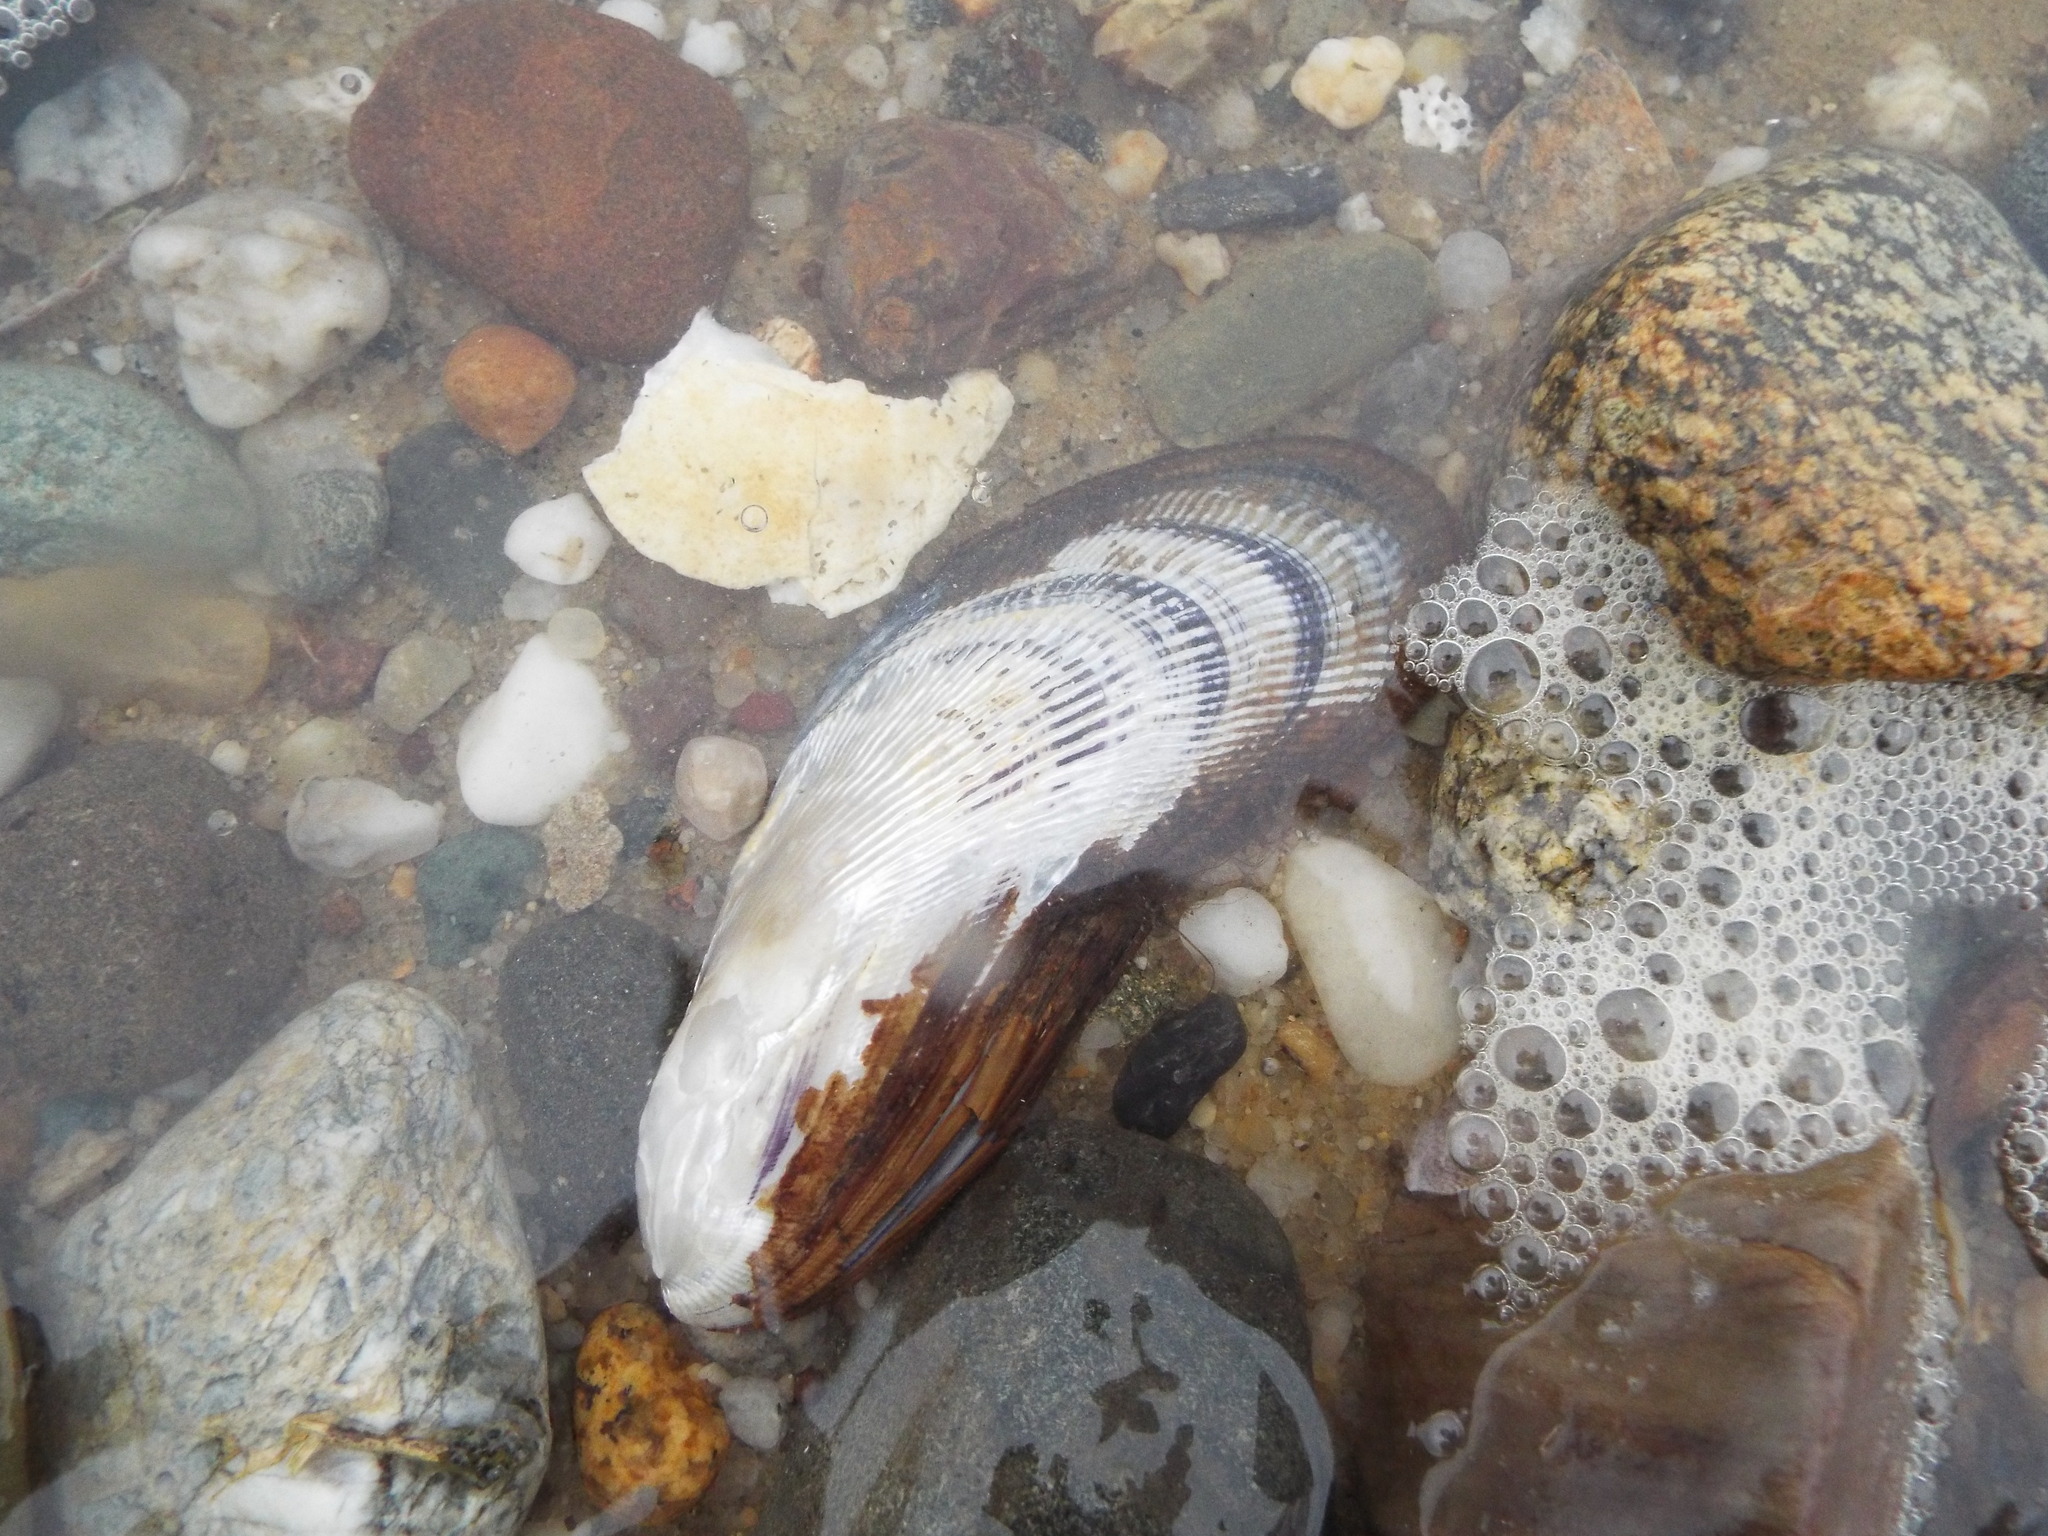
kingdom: Animalia
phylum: Mollusca
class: Bivalvia
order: Mytilida
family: Mytilidae
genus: Geukensia
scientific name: Geukensia demissa
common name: Ribbed mussel
